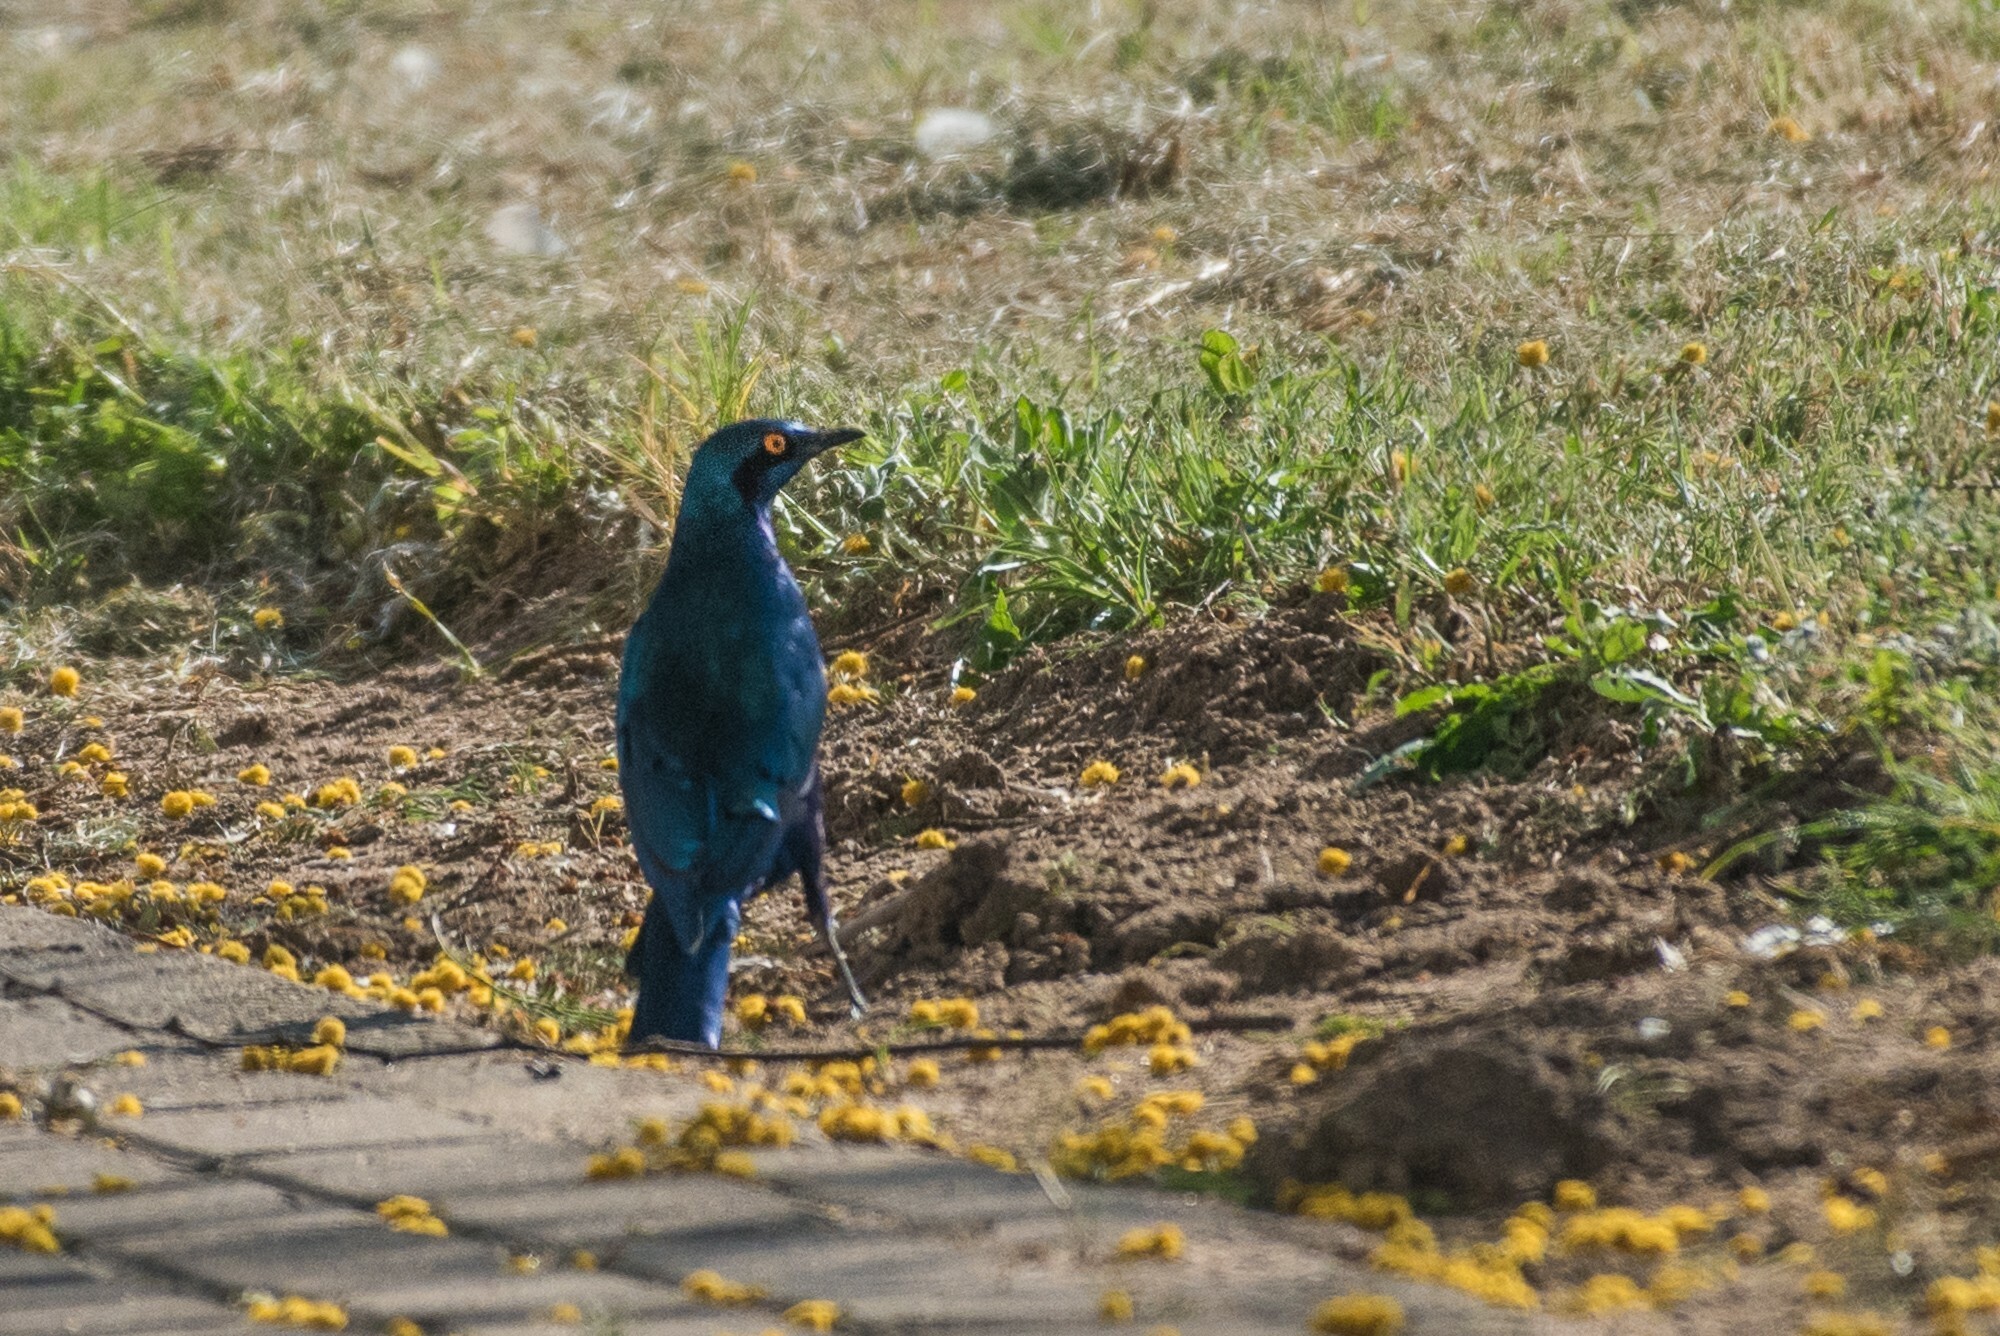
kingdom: Animalia
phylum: Chordata
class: Aves
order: Passeriformes
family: Sturnidae
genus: Lamprotornis
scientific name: Lamprotornis chalybaeus
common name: Greater blue-eared starling
